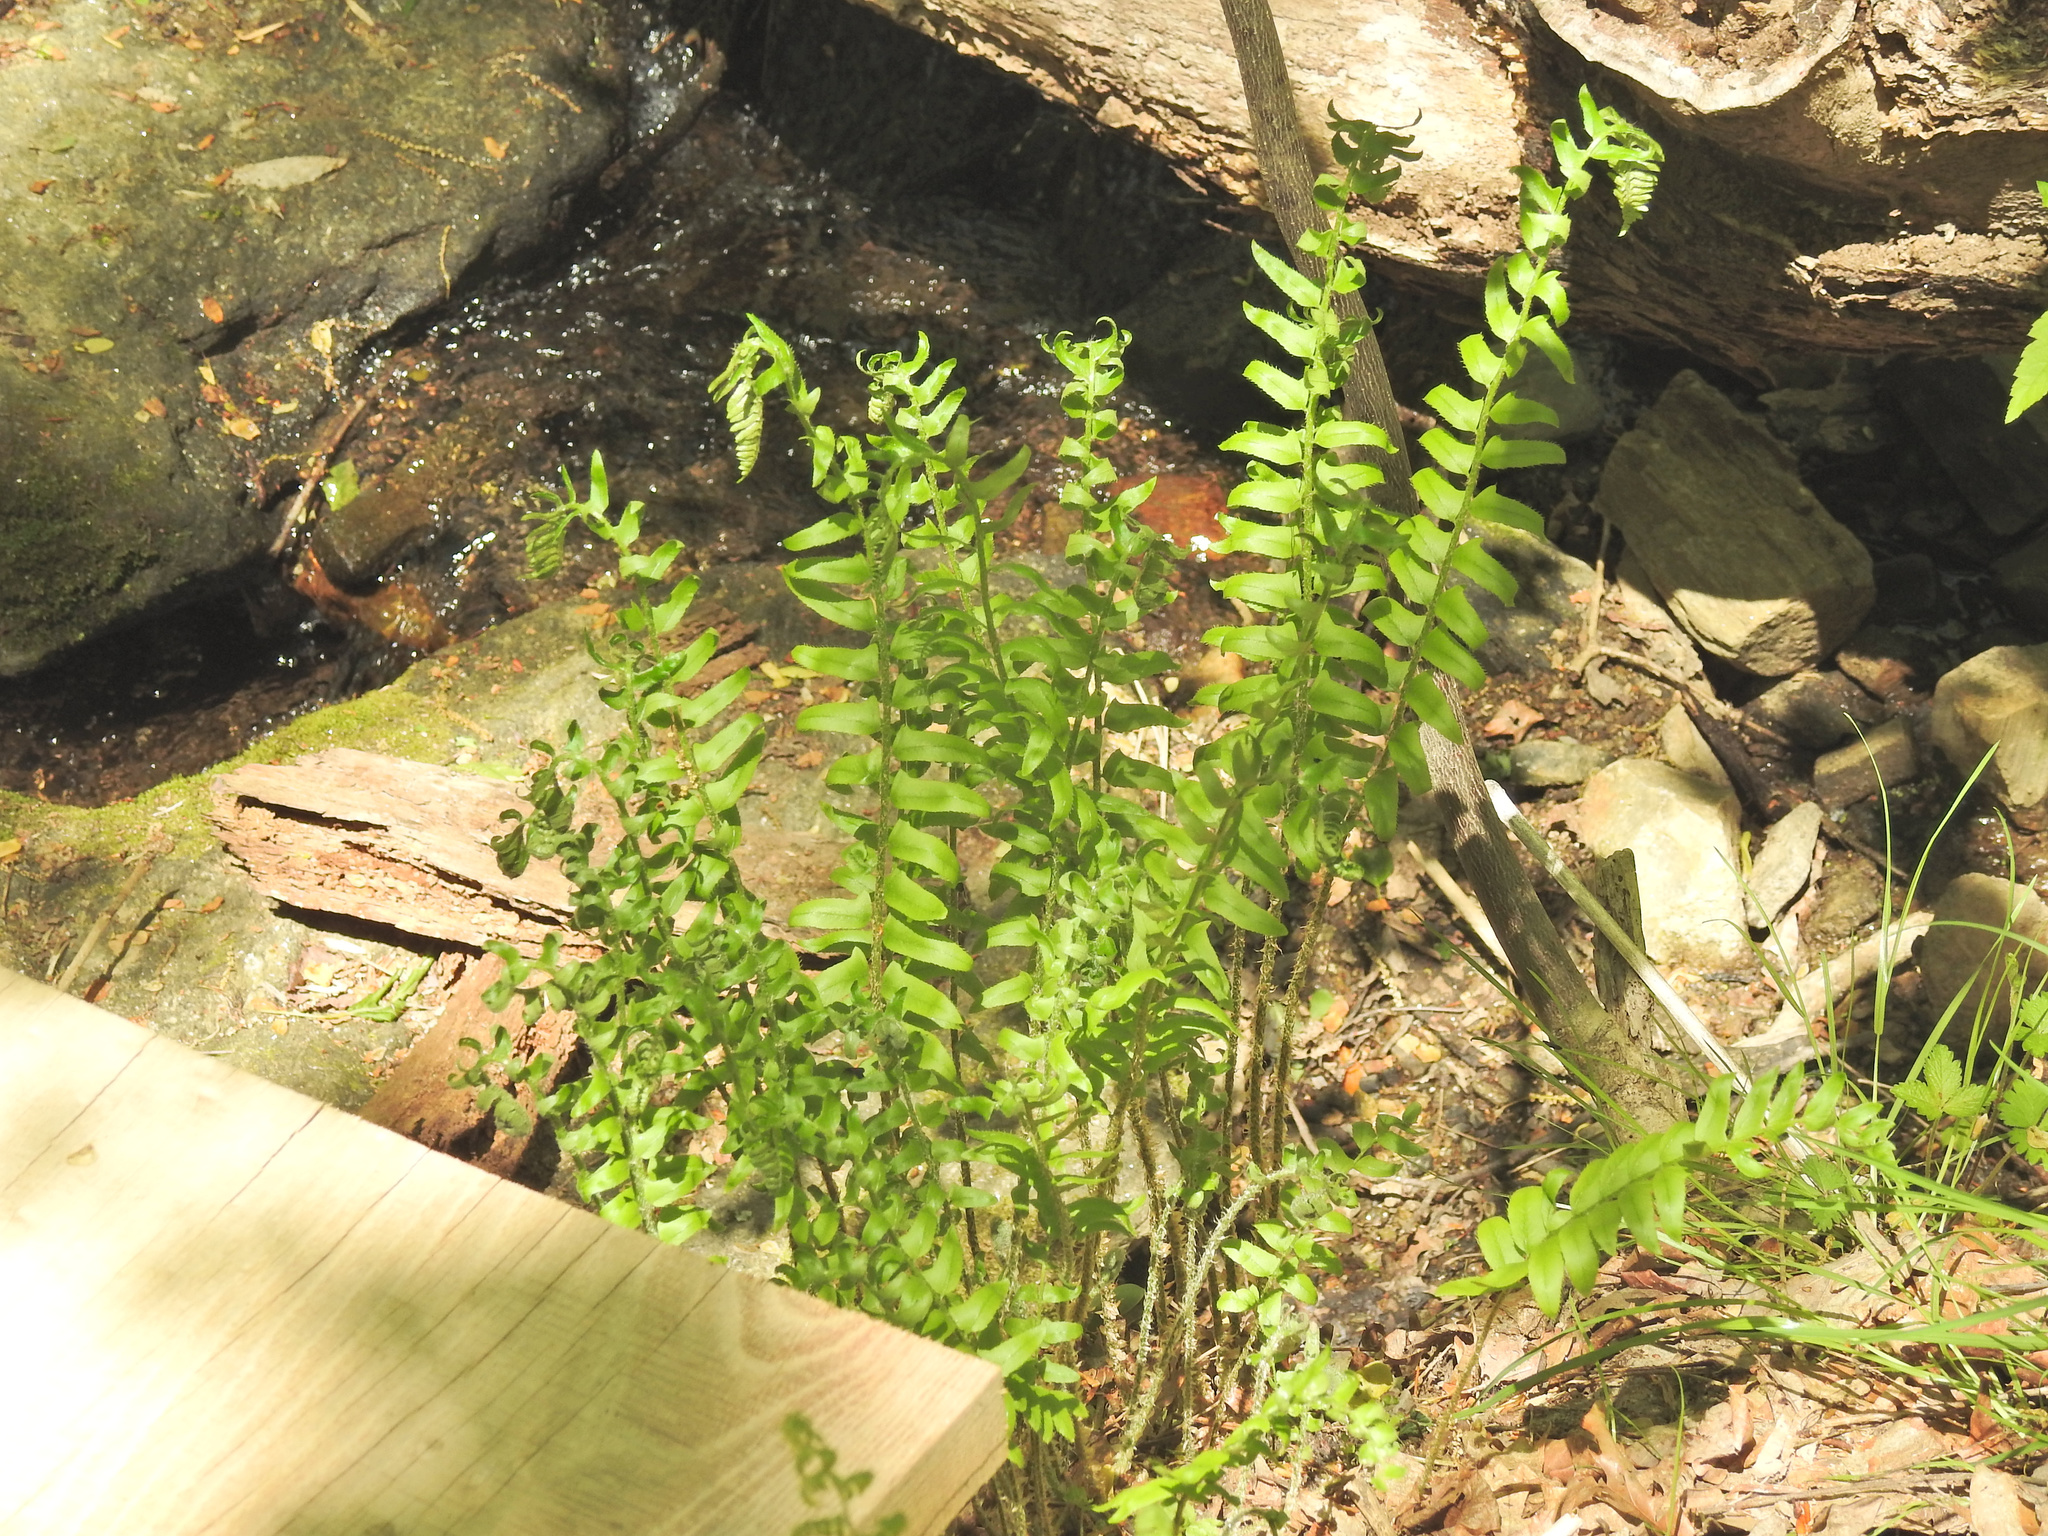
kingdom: Plantae
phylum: Tracheophyta
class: Polypodiopsida
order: Polypodiales
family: Dryopteridaceae
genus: Polystichum
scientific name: Polystichum acrostichoides
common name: Christmas fern
